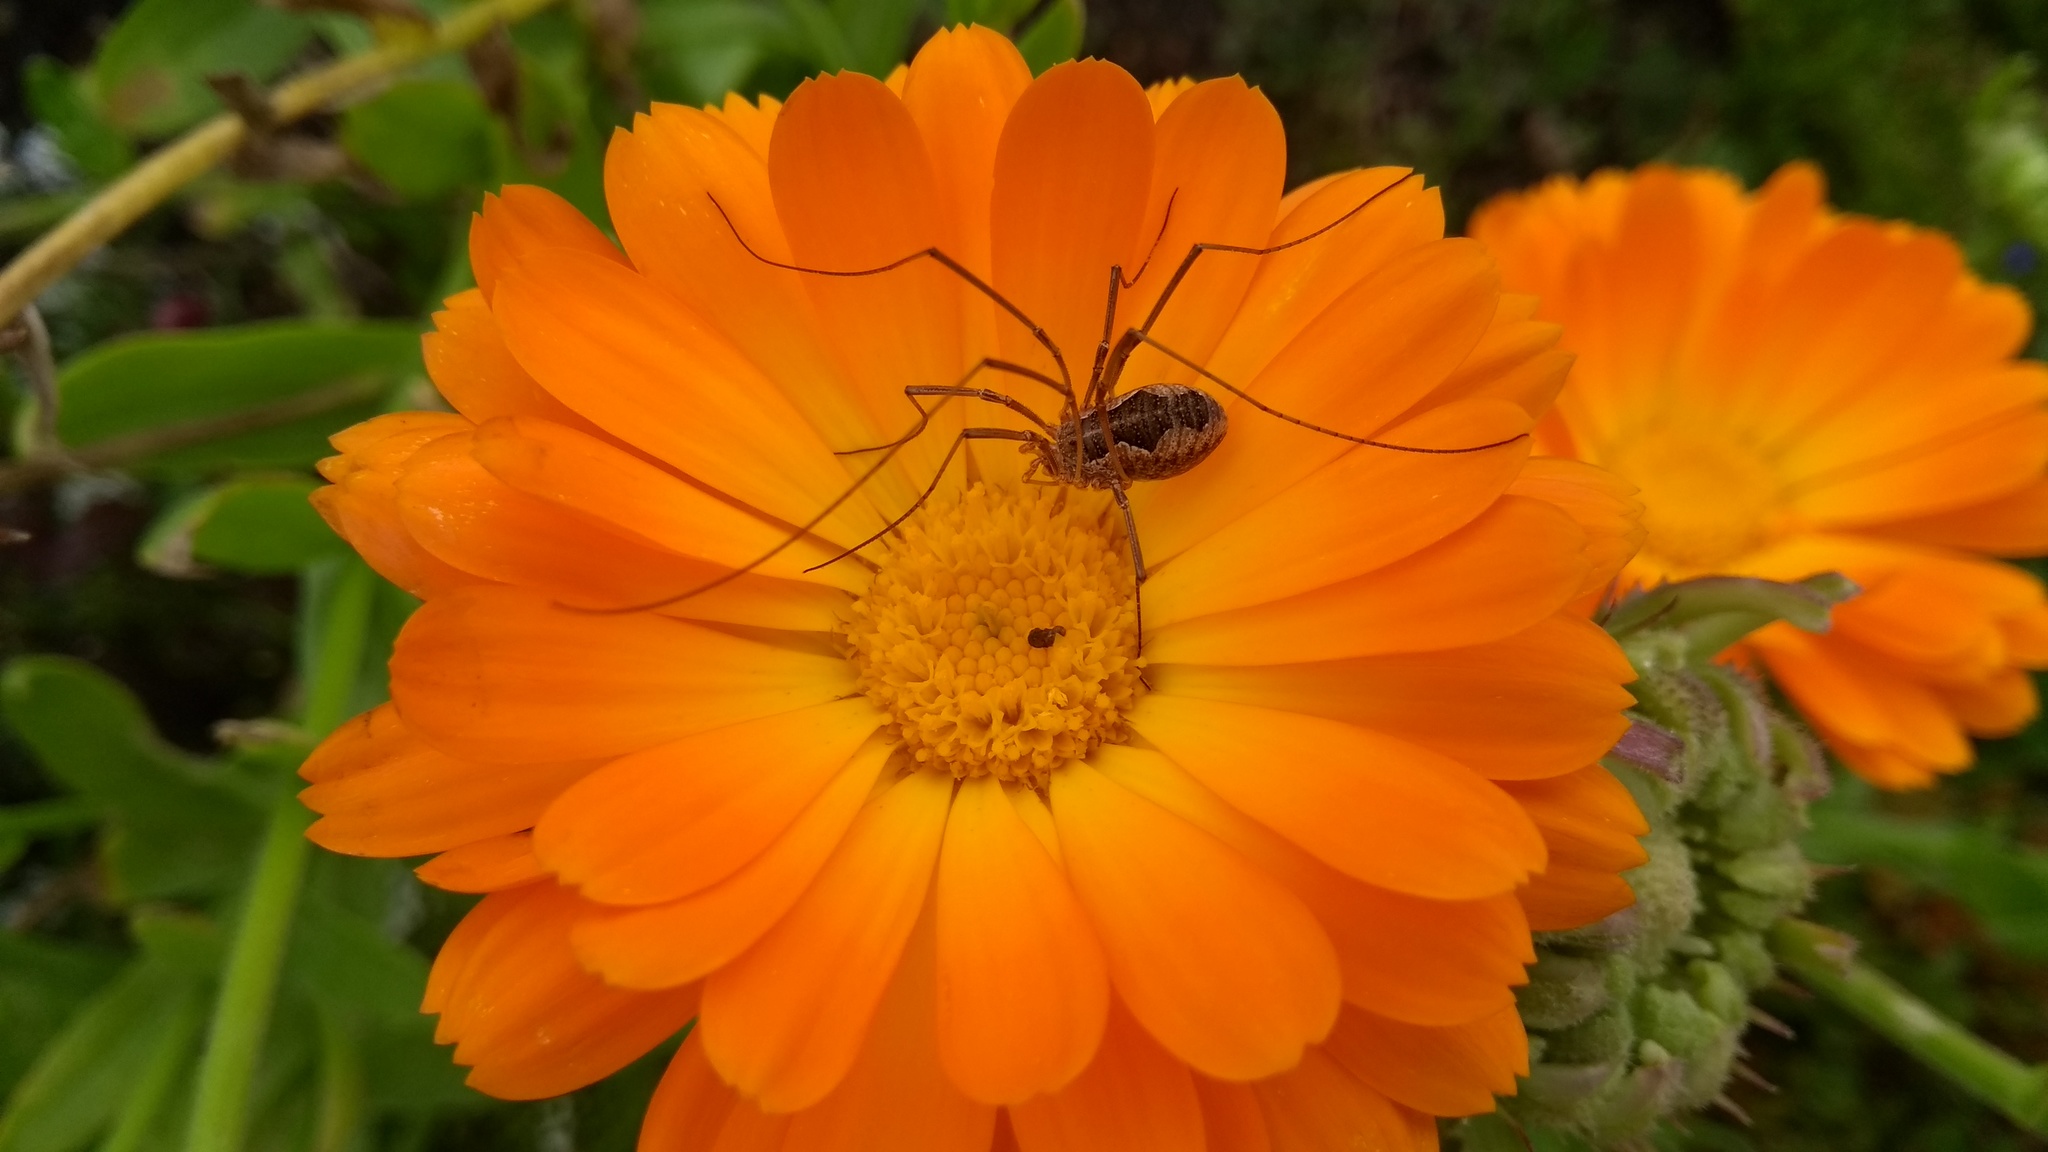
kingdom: Animalia
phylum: Arthropoda
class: Arachnida
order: Opiliones
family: Phalangiidae
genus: Phalangium
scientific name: Phalangium opilio
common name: Daddy longleg
